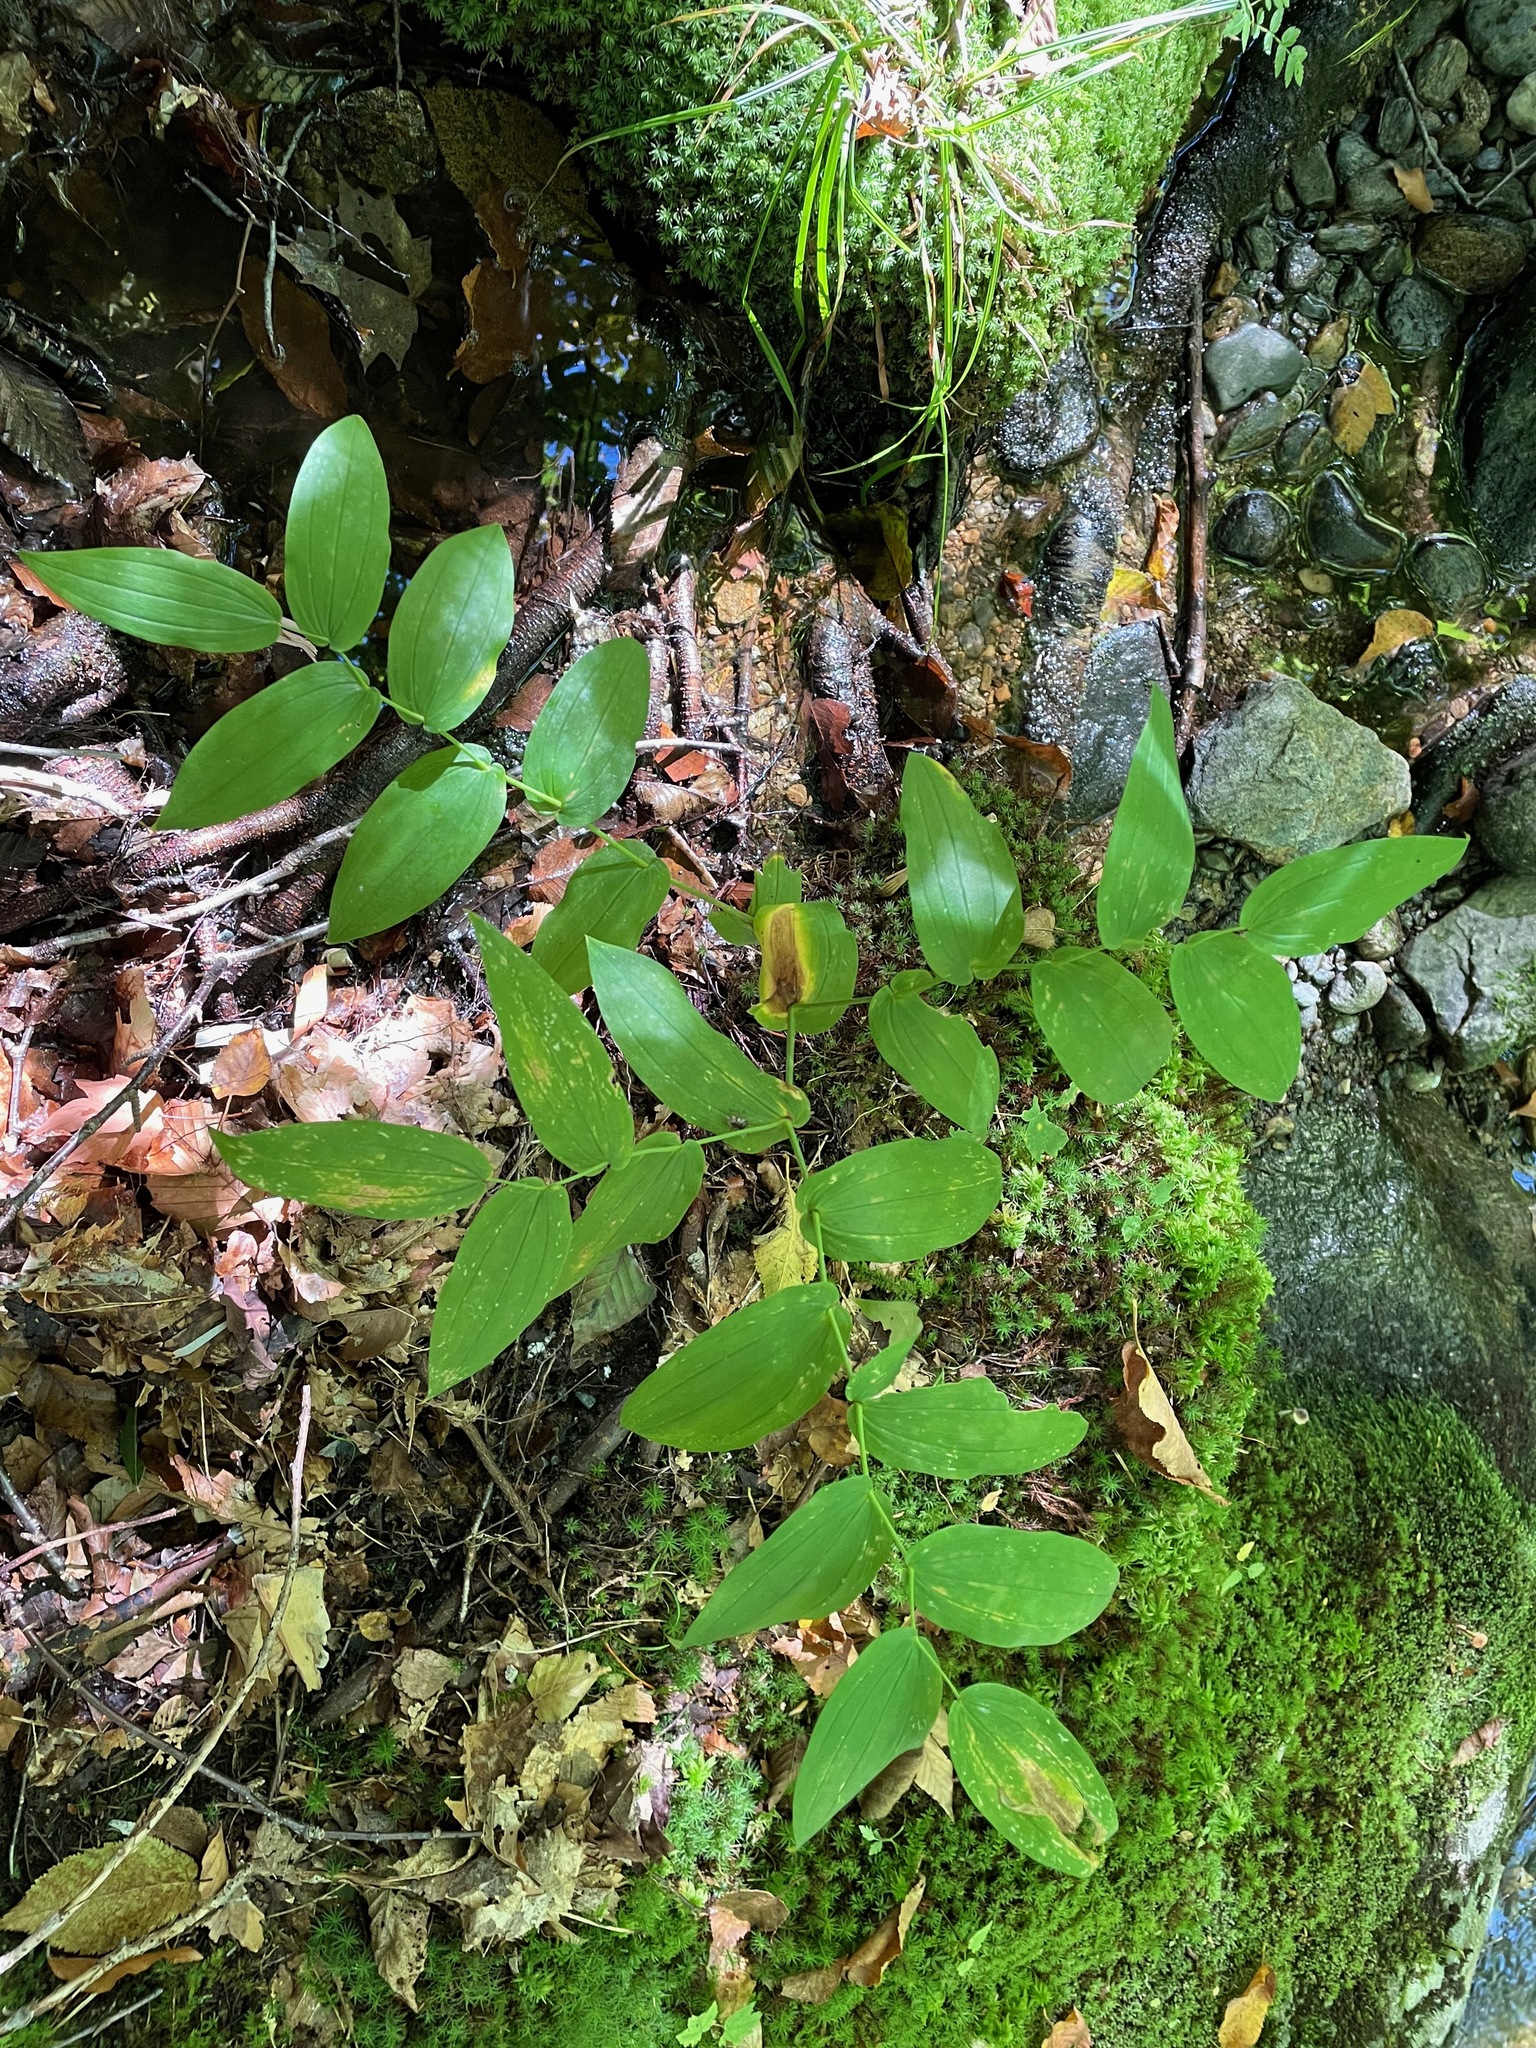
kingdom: Plantae
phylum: Tracheophyta
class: Liliopsida
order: Liliales
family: Liliaceae
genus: Streptopus
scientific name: Streptopus amplexifolius
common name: Clasp twisted stalk
